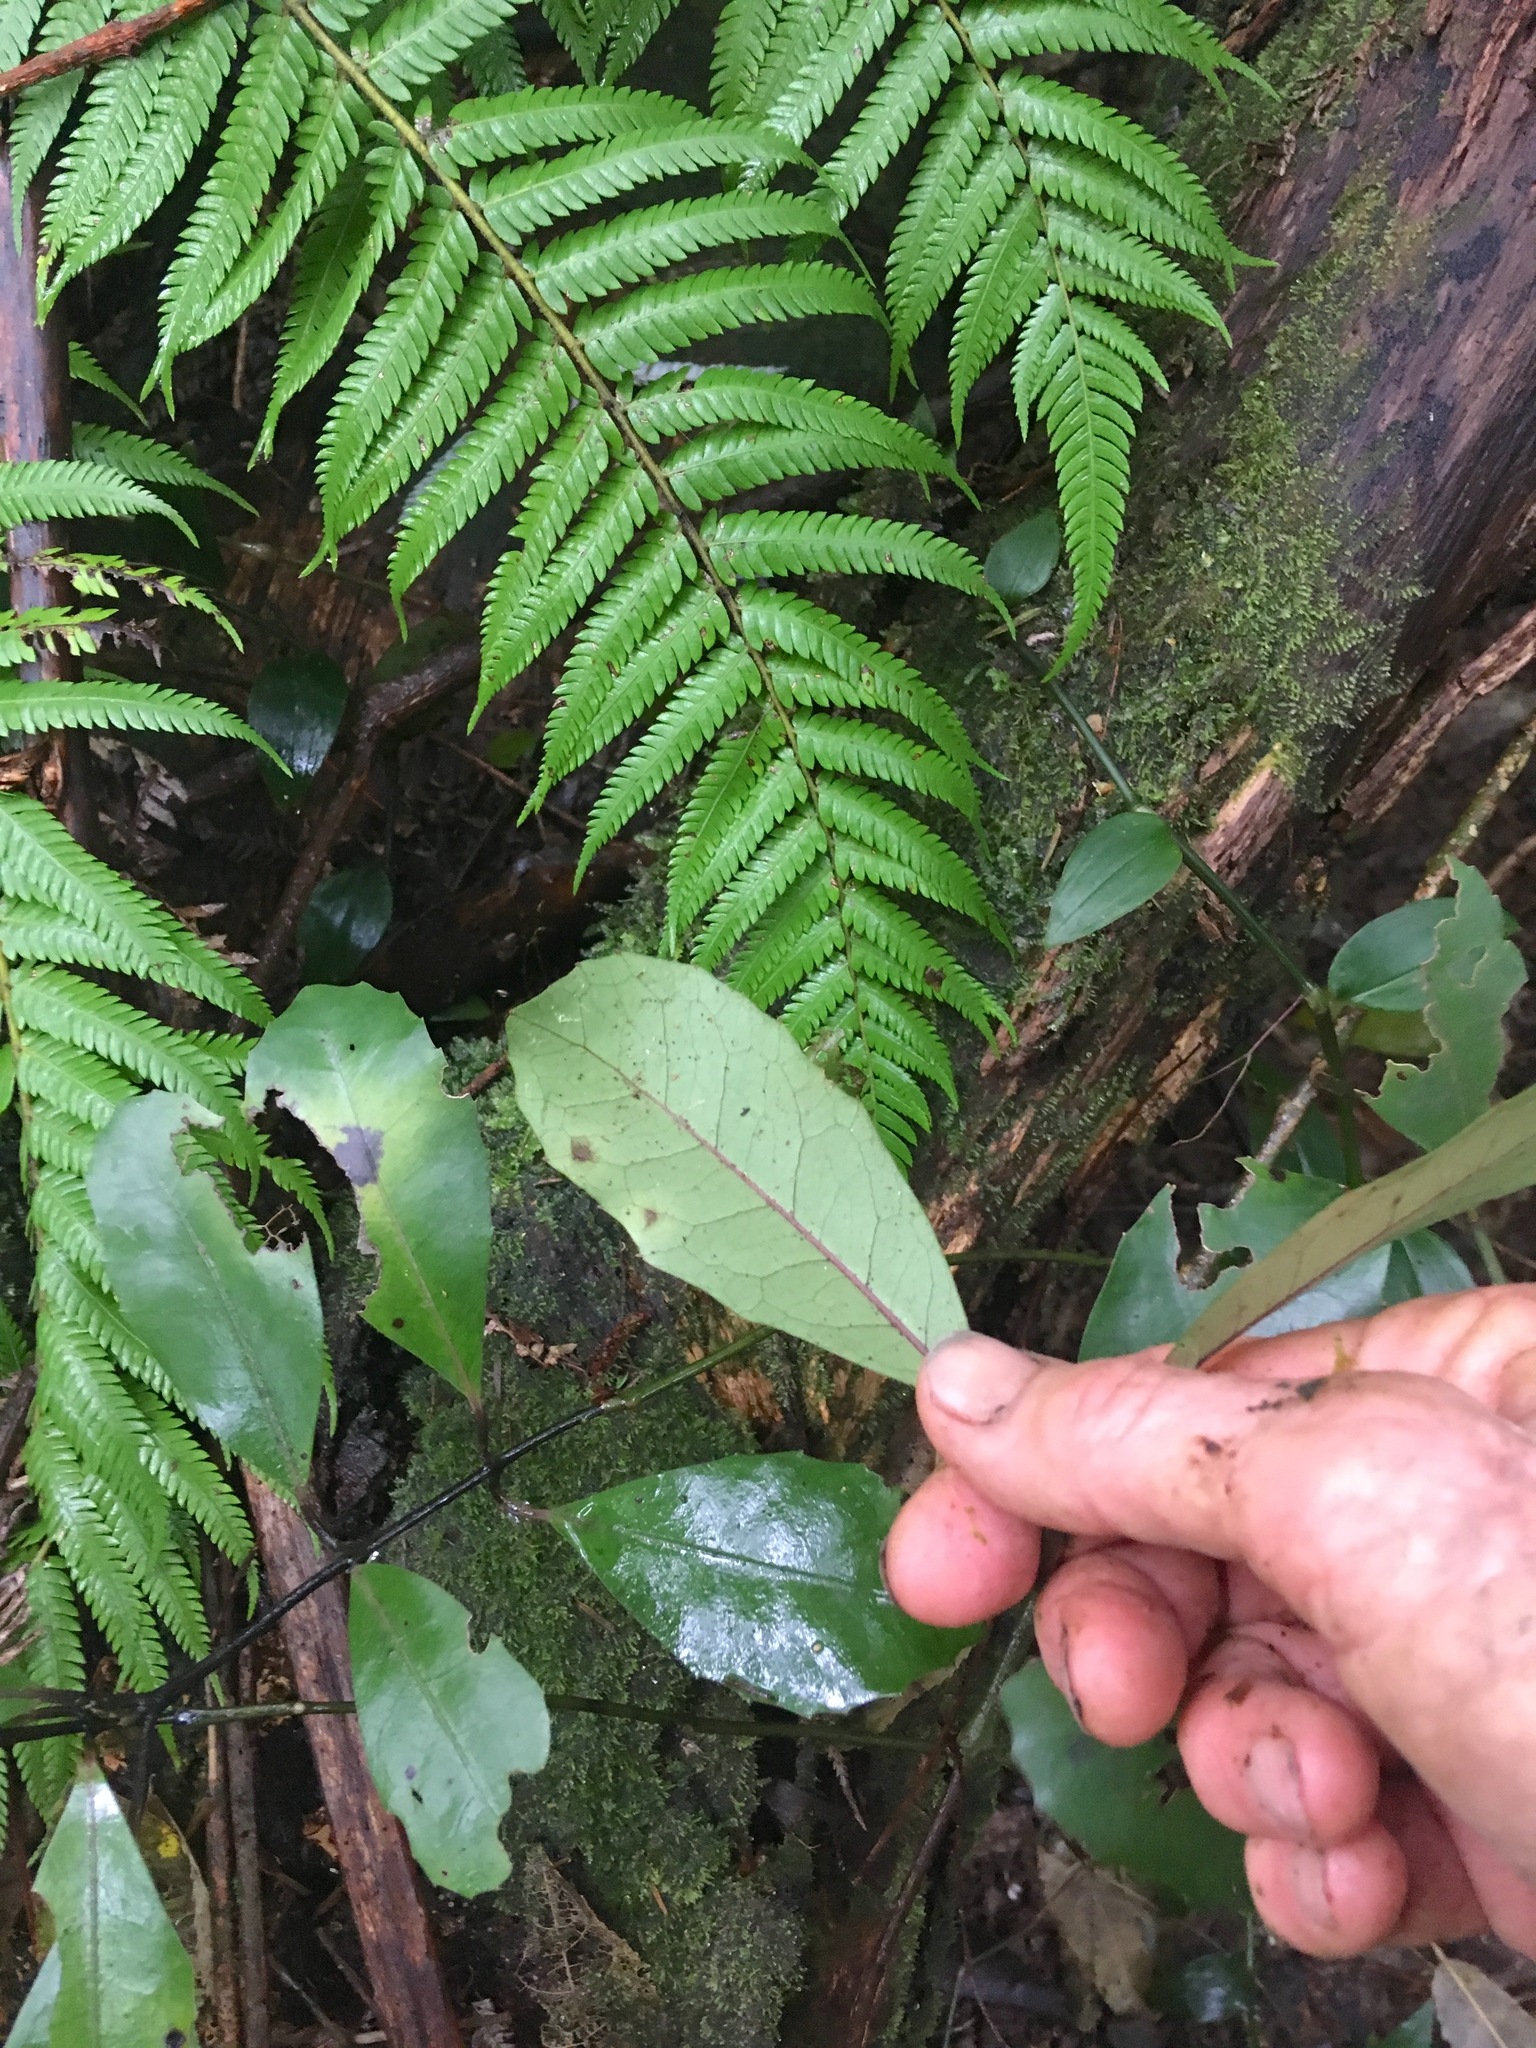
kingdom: Plantae
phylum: Tracheophyta
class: Magnoliopsida
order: Laurales
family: Monimiaceae
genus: Hedycarya
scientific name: Hedycarya arborea
